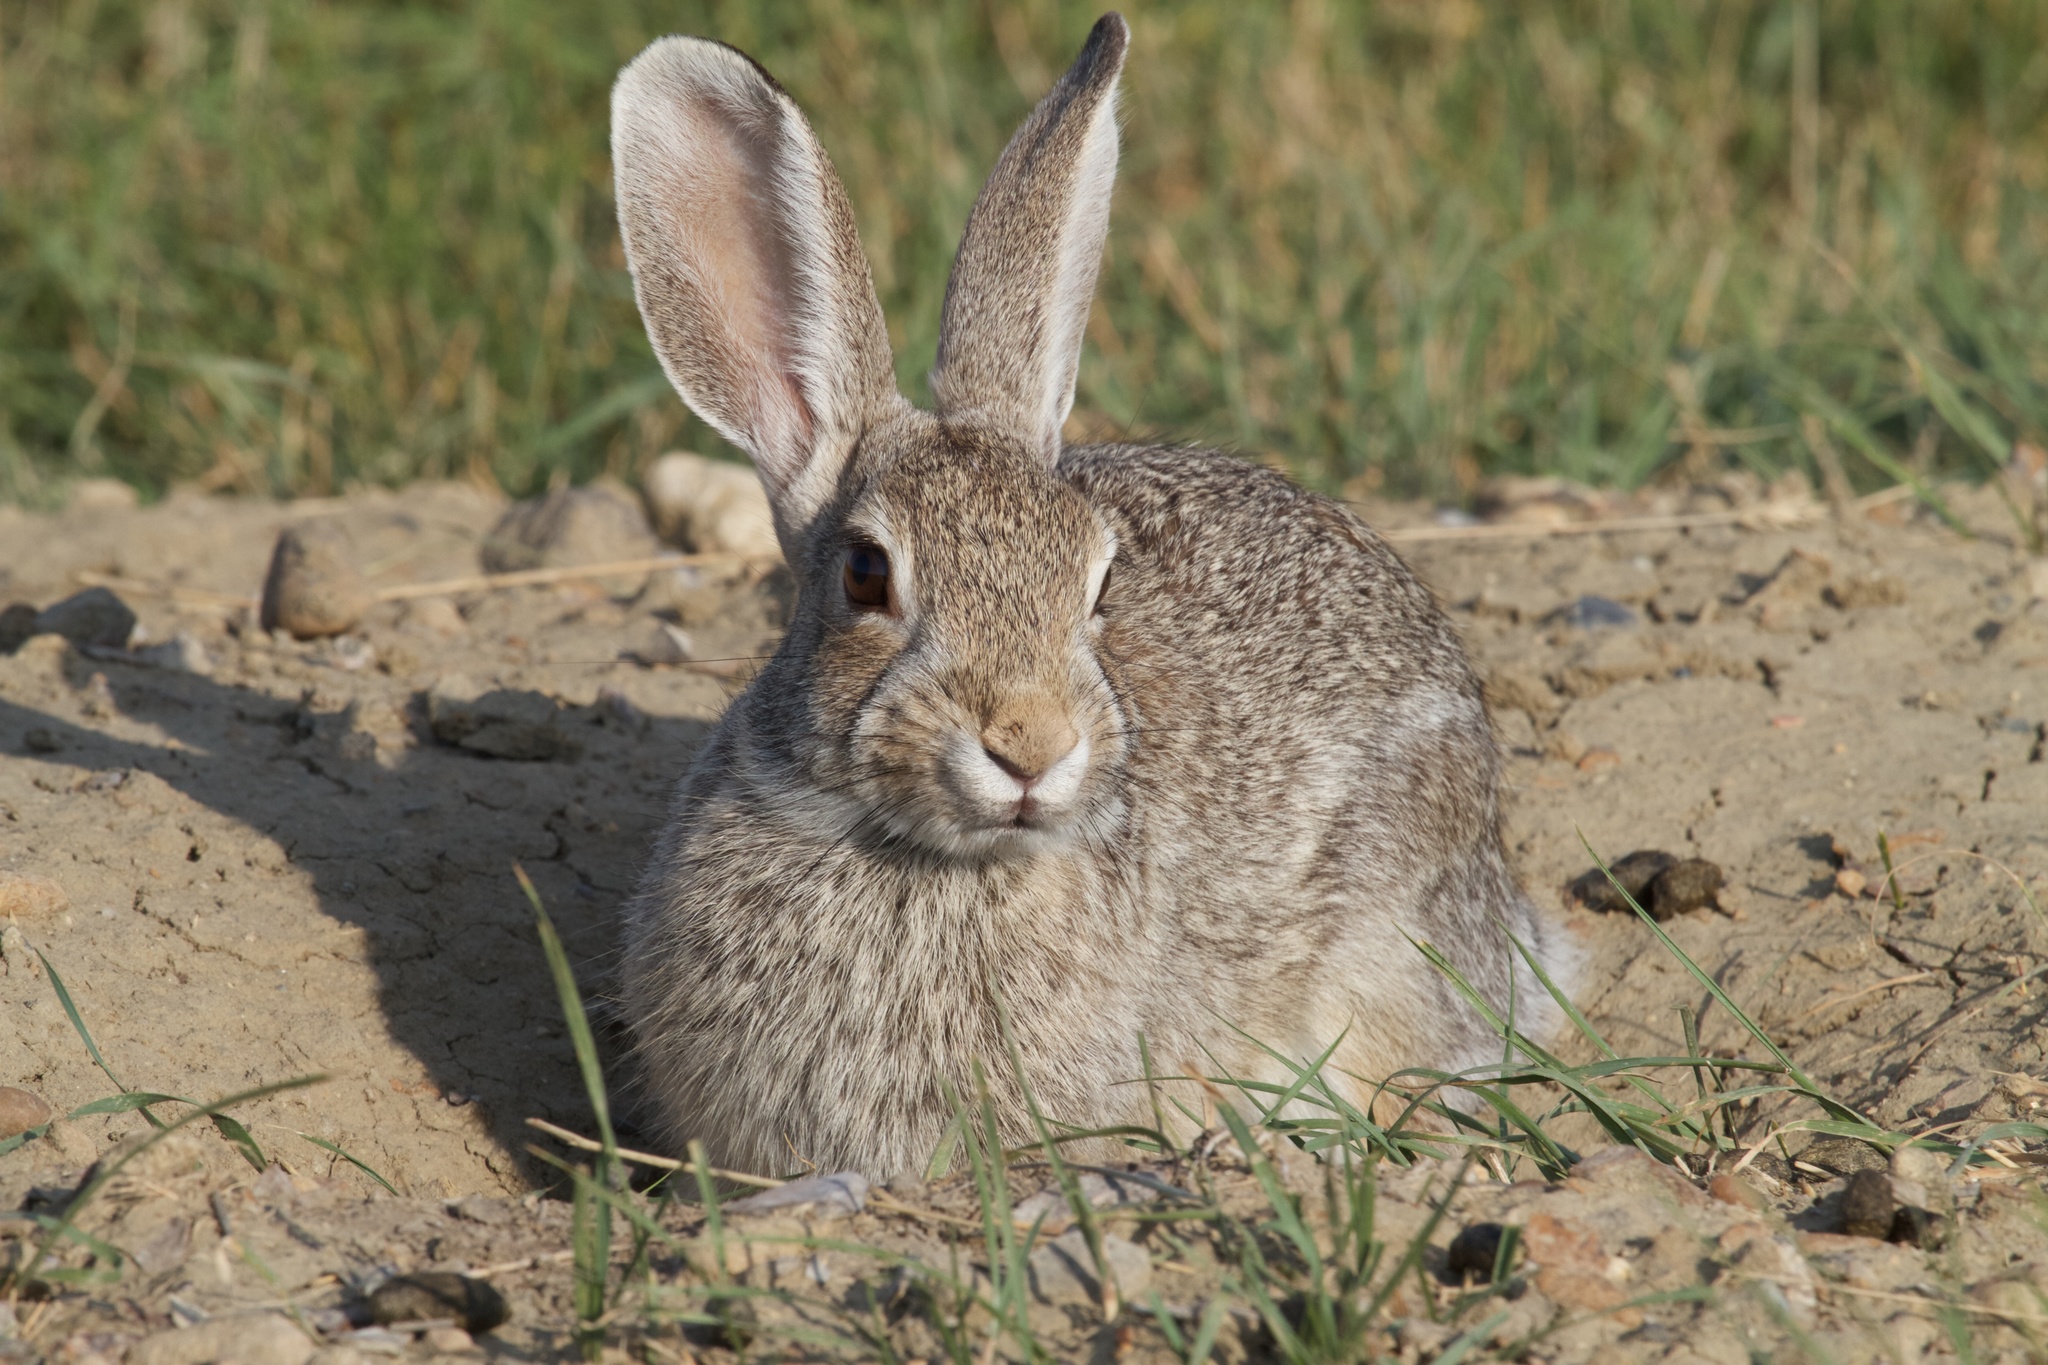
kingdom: Animalia
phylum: Chordata
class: Mammalia
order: Lagomorpha
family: Leporidae
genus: Lepus
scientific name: Lepus townsendii
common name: White-tailed jackrabbit
